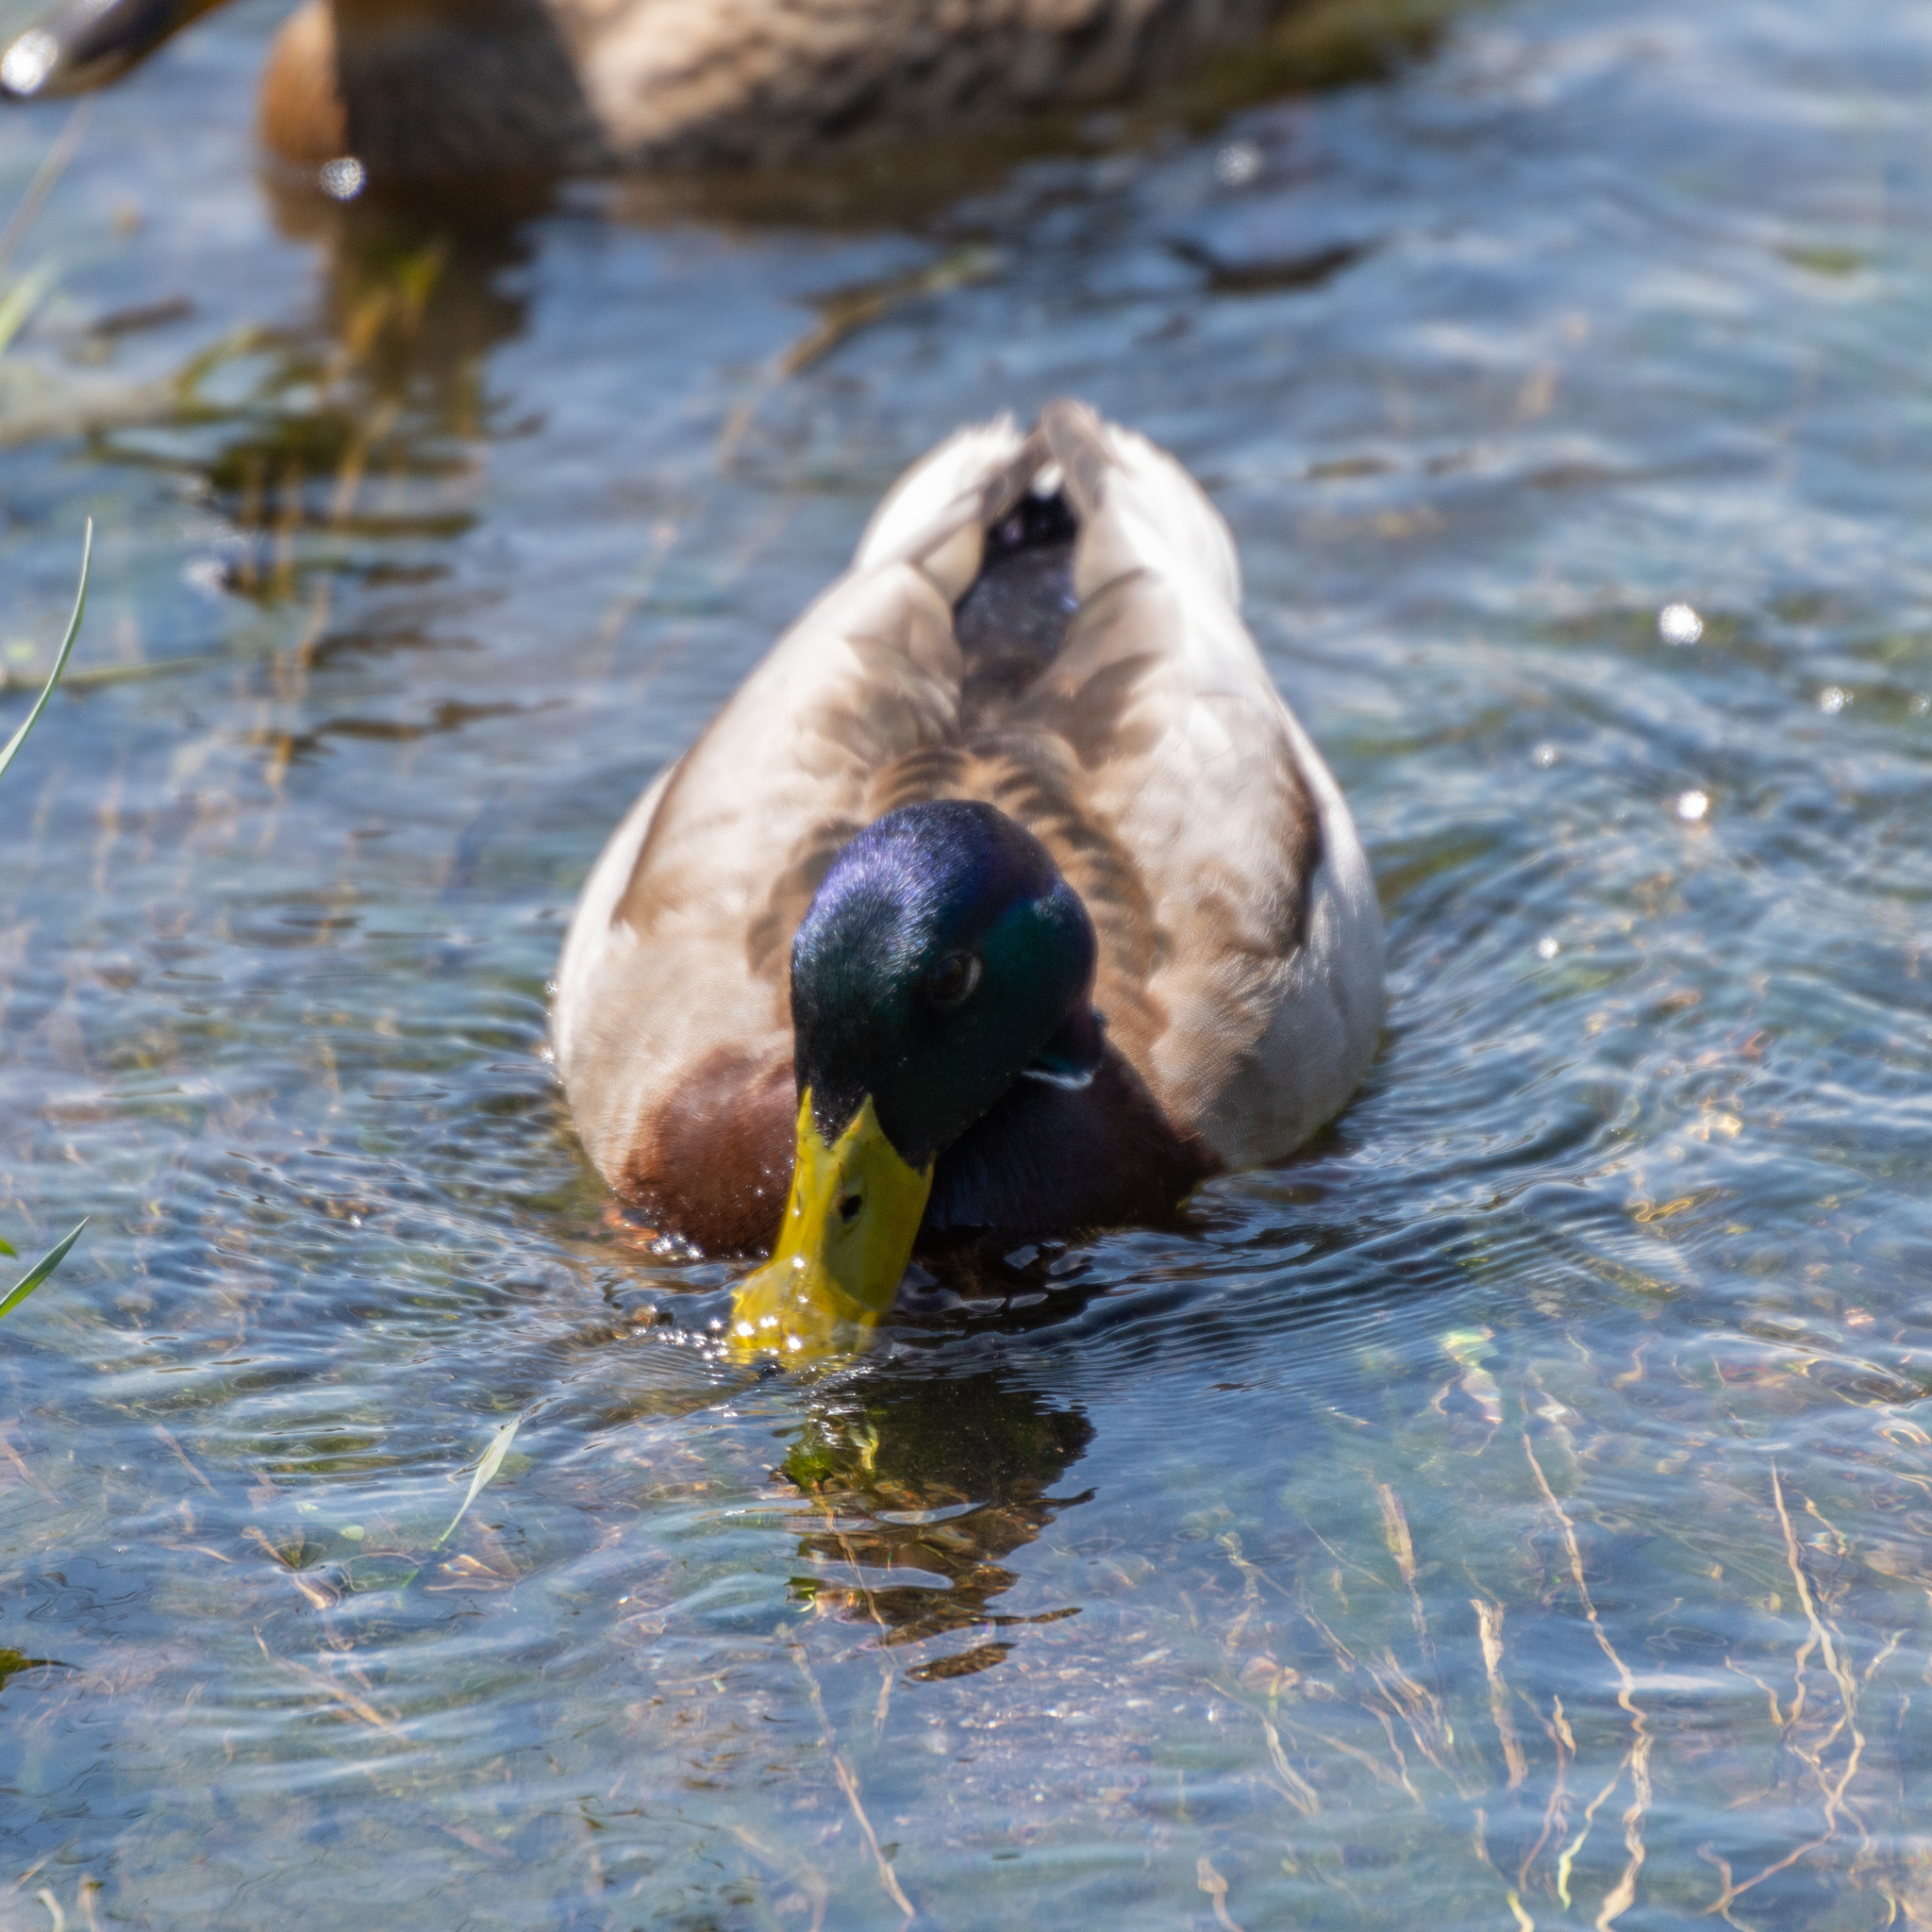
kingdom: Animalia
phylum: Chordata
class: Aves
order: Anseriformes
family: Anatidae
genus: Anas
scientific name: Anas platyrhynchos
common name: Mallard
